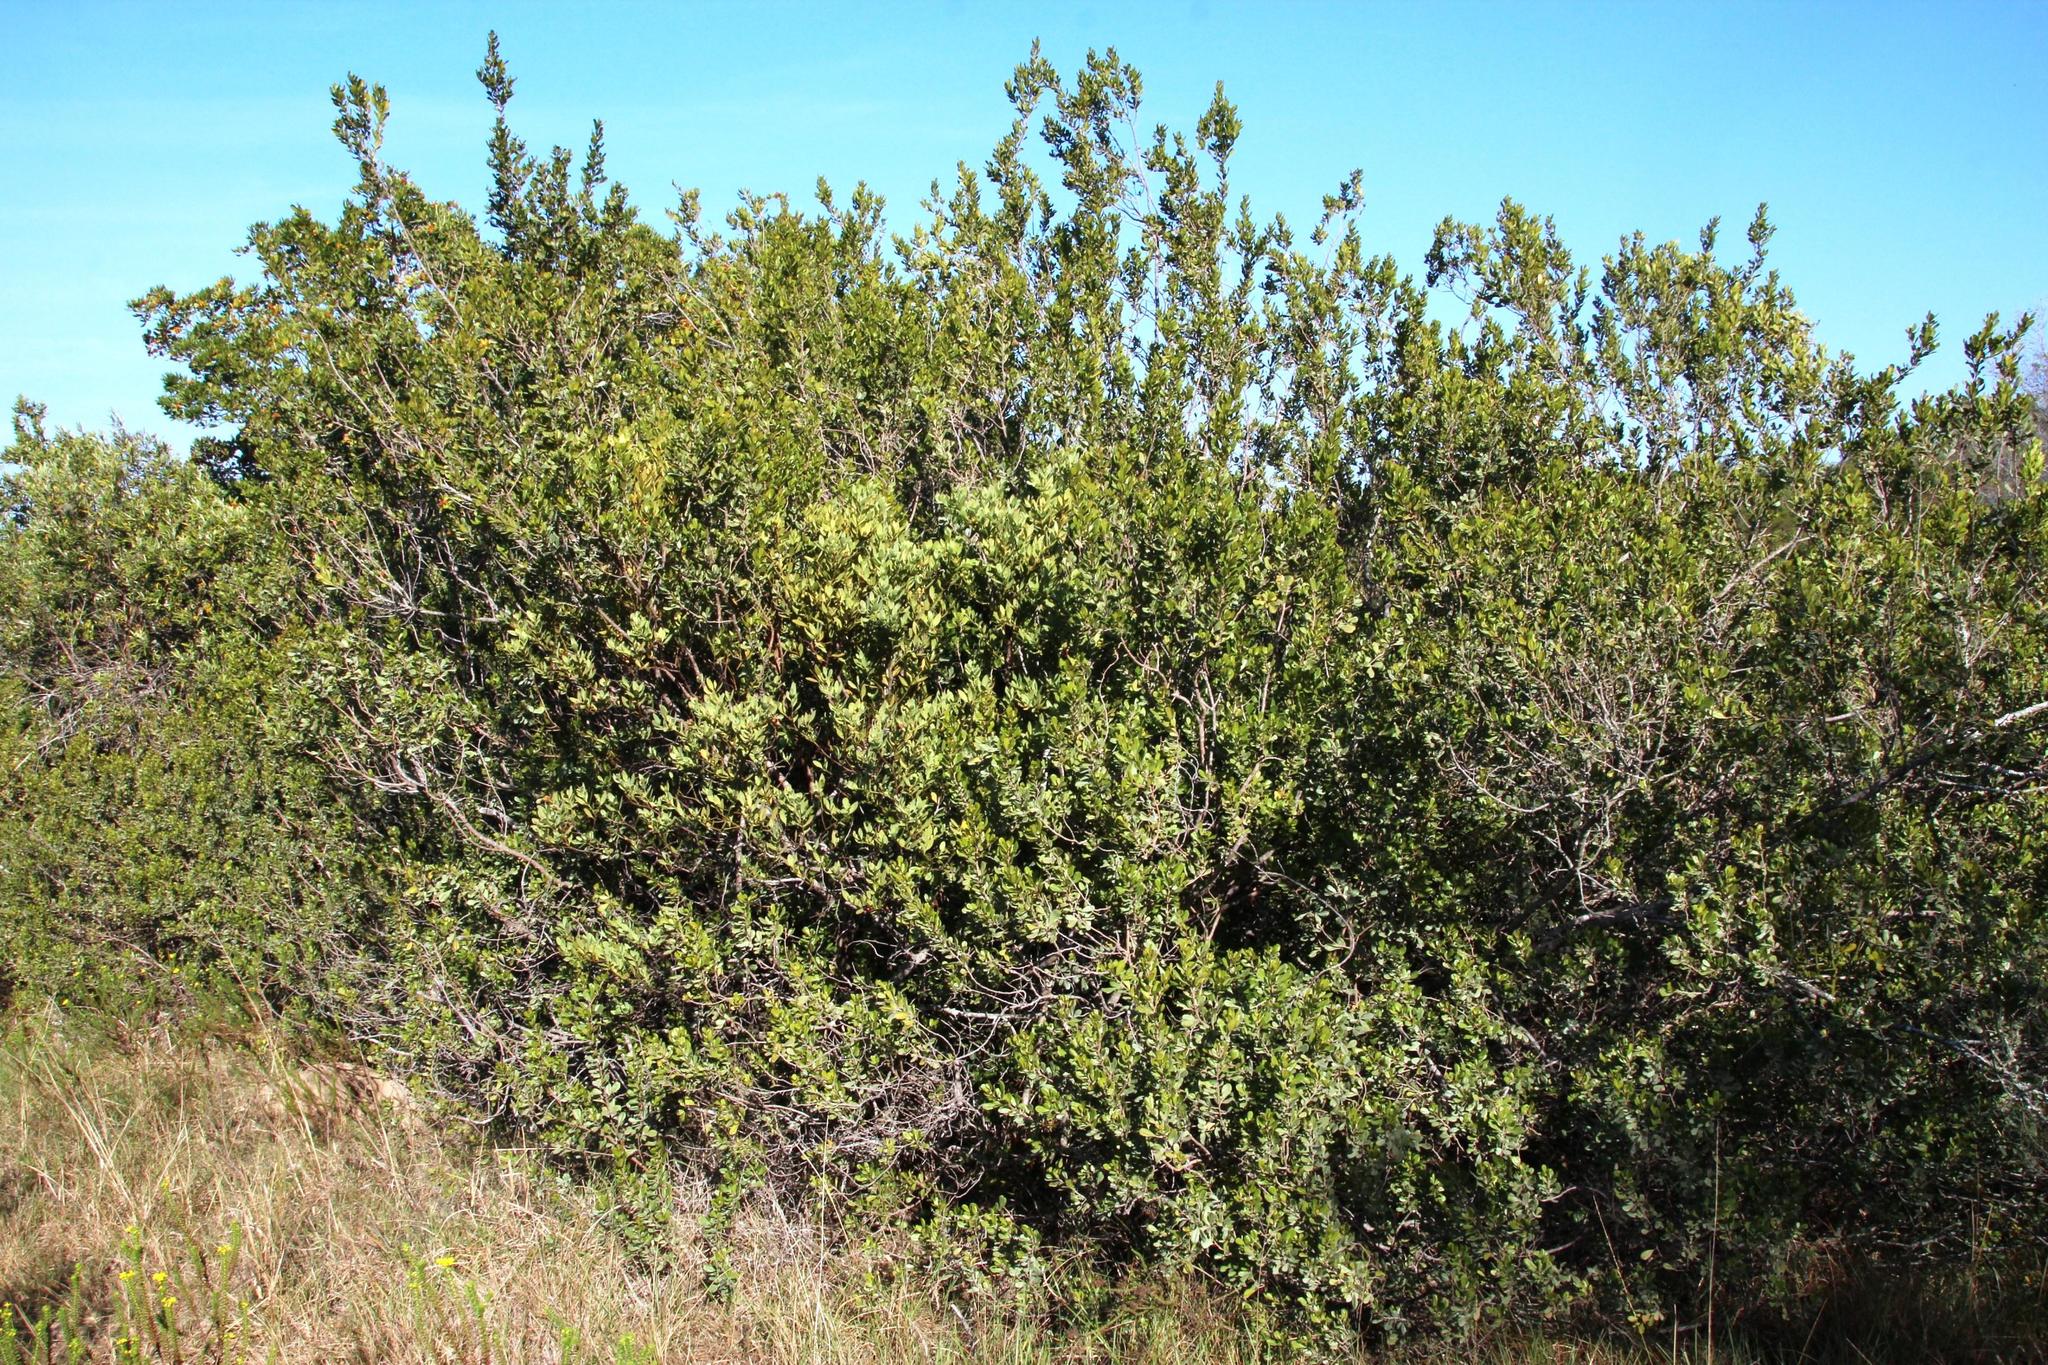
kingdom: Plantae
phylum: Tracheophyta
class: Magnoliopsida
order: Santalales
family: Santalaceae
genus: Osyris
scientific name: Osyris compressa
